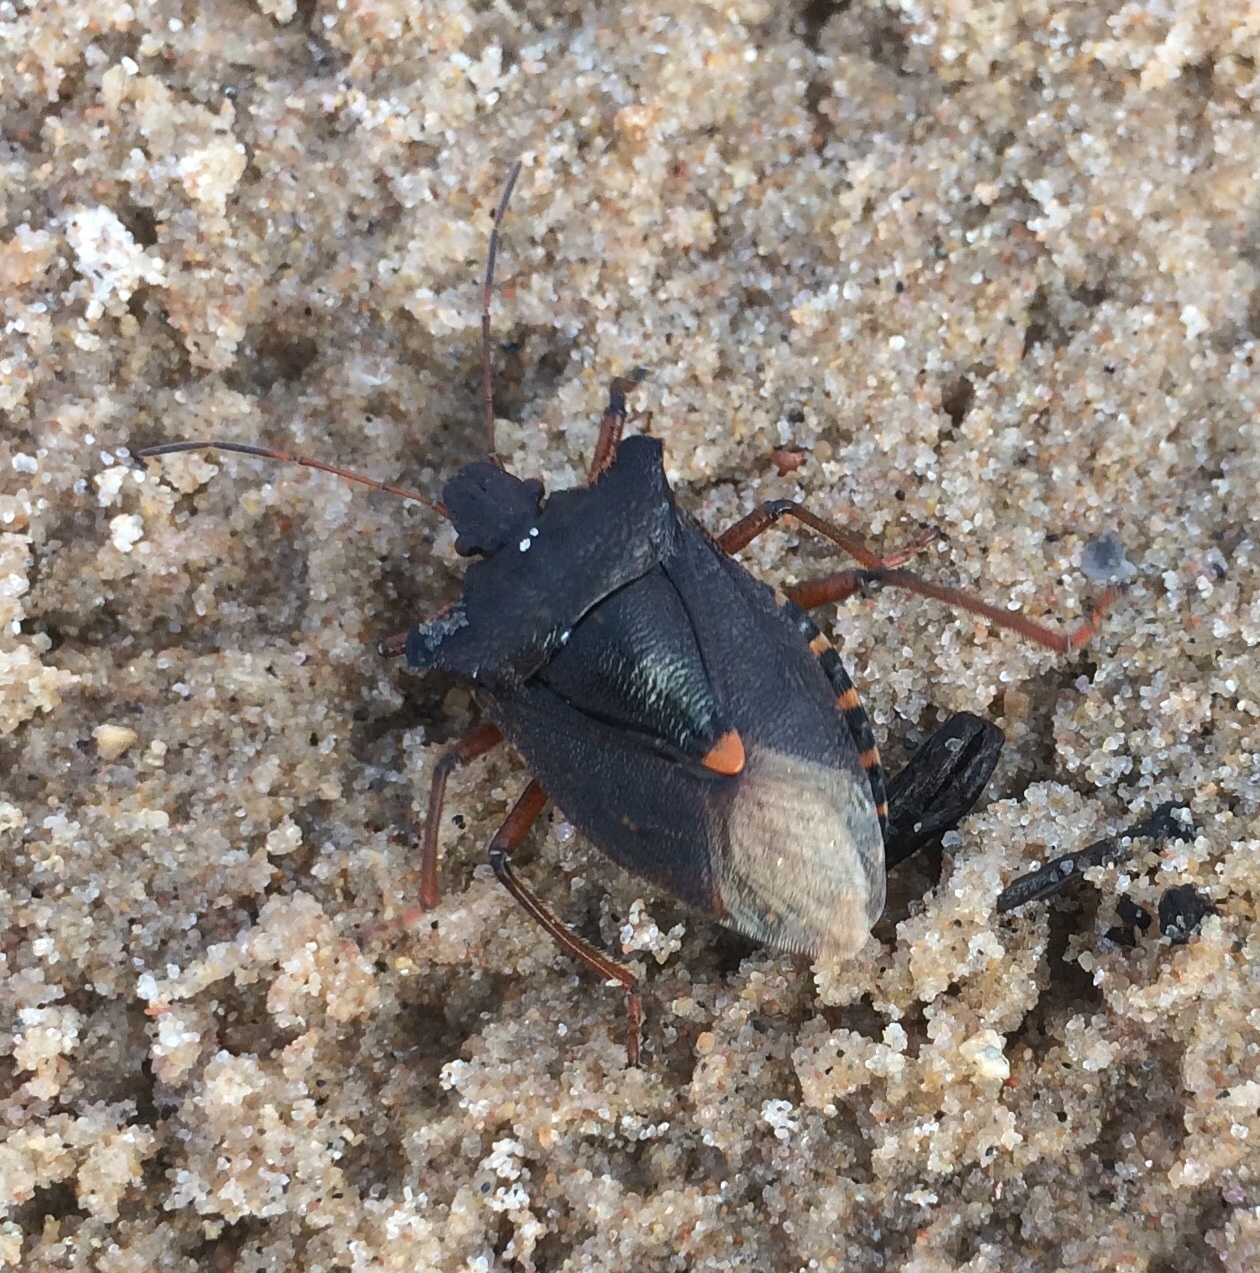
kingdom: Animalia
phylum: Arthropoda
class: Insecta
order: Hemiptera
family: Pentatomidae
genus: Pentatoma
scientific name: Pentatoma rufipes
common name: Forest bug
